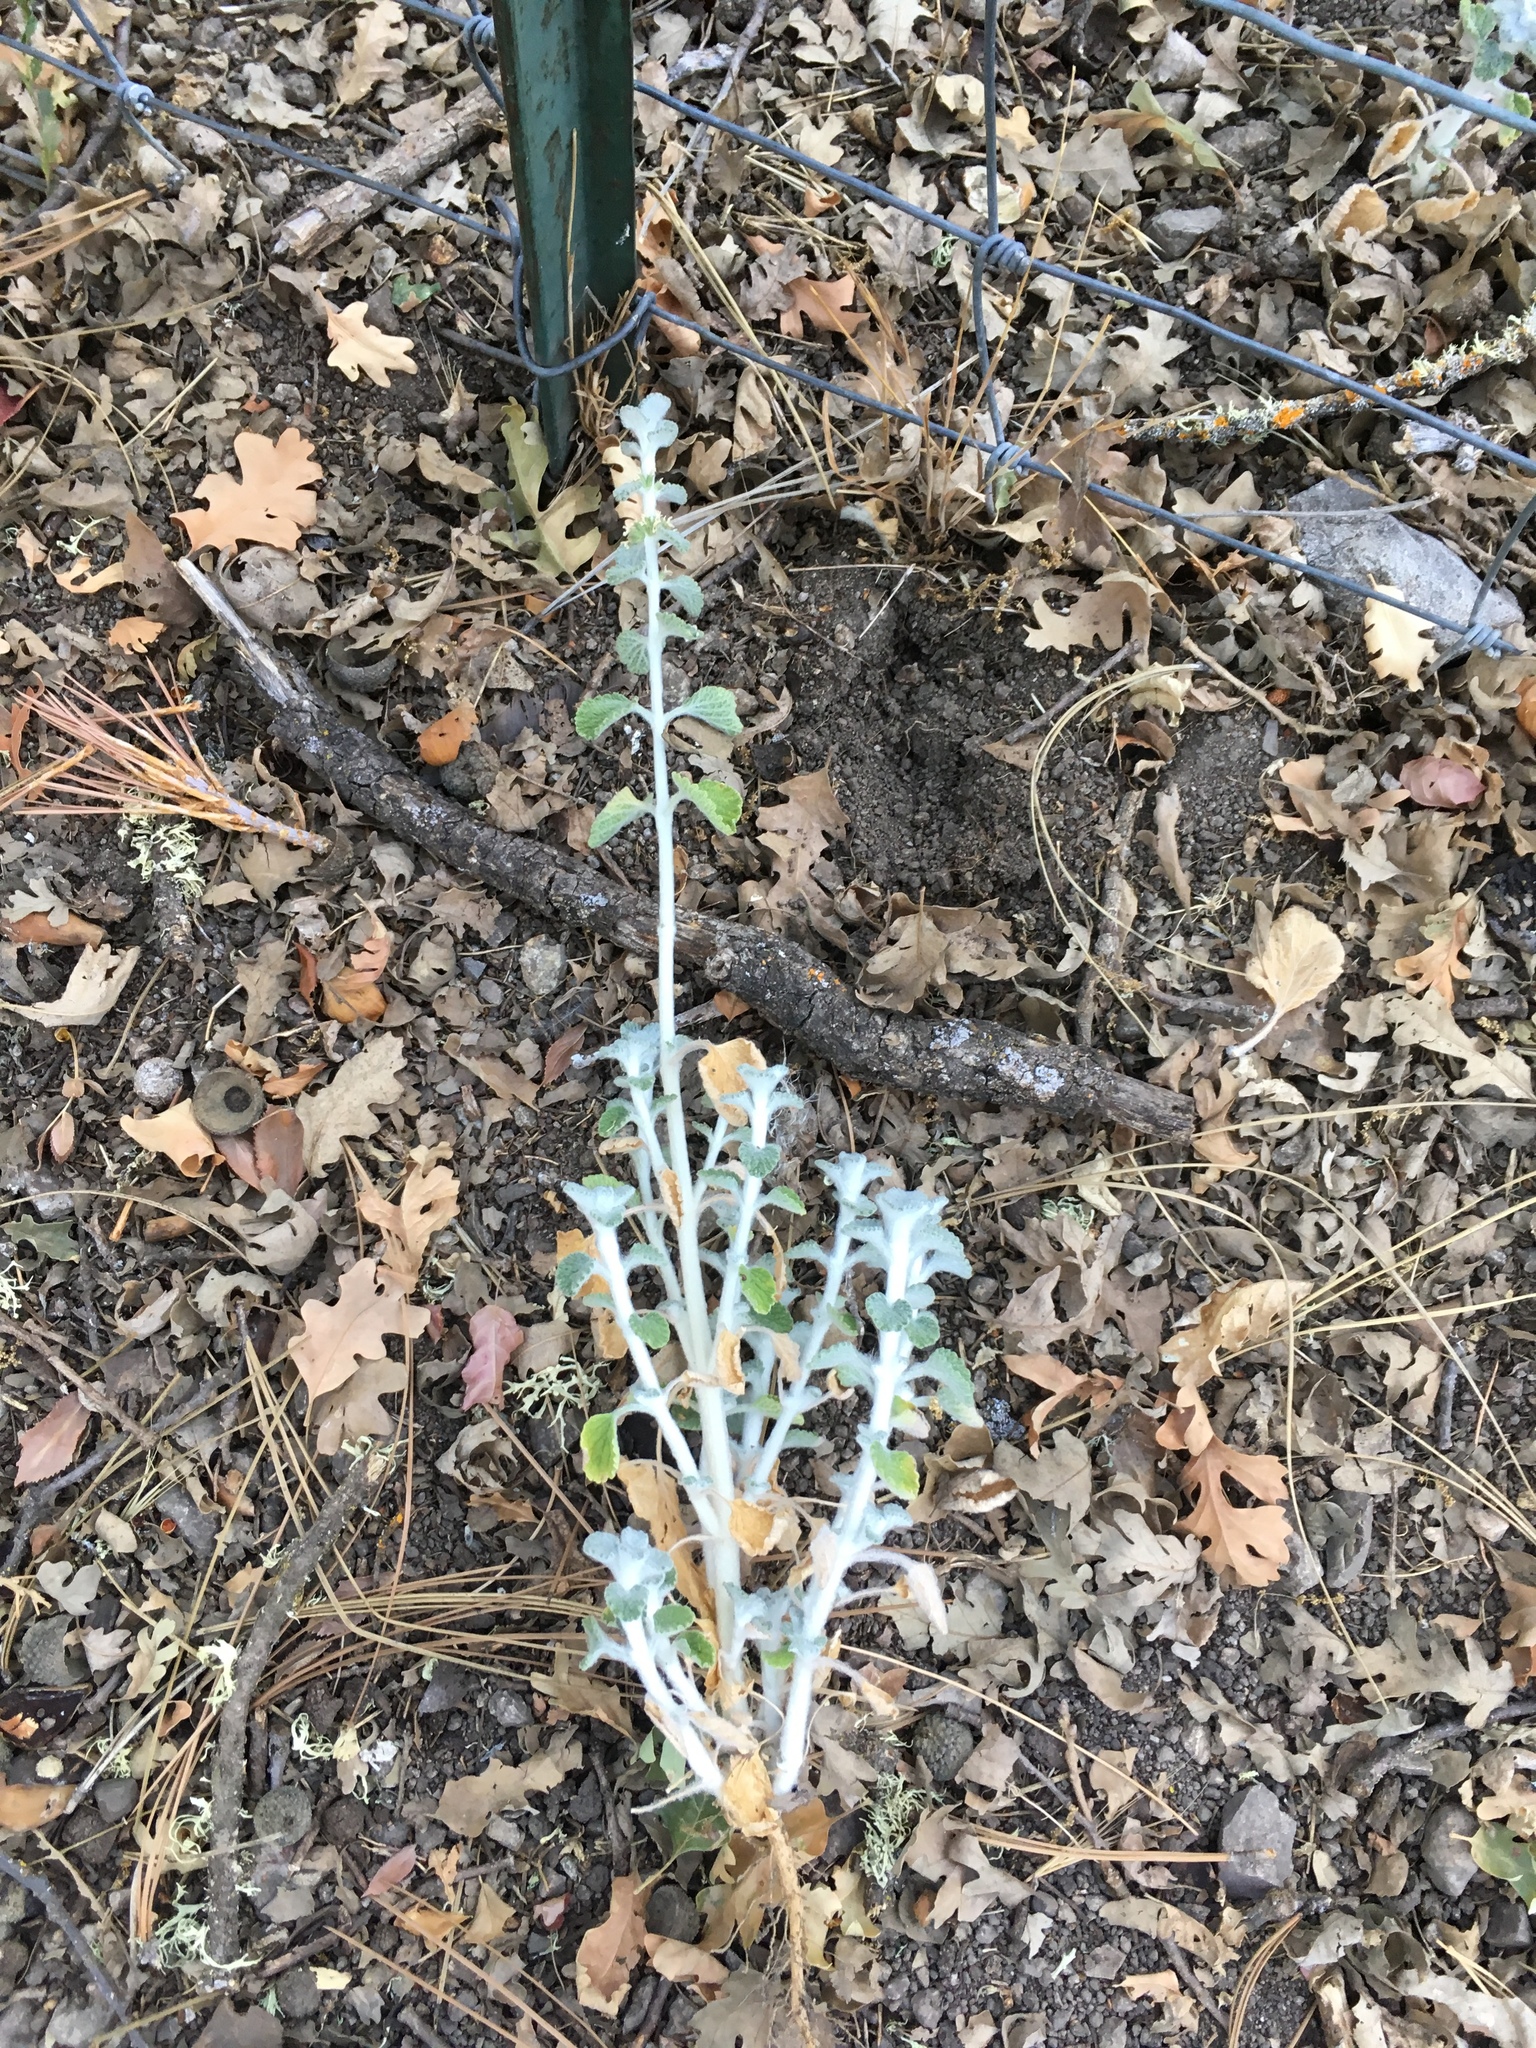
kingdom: Plantae
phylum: Tracheophyta
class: Magnoliopsida
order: Lamiales
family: Lamiaceae
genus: Marrubium
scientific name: Marrubium vulgare
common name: Horehound
